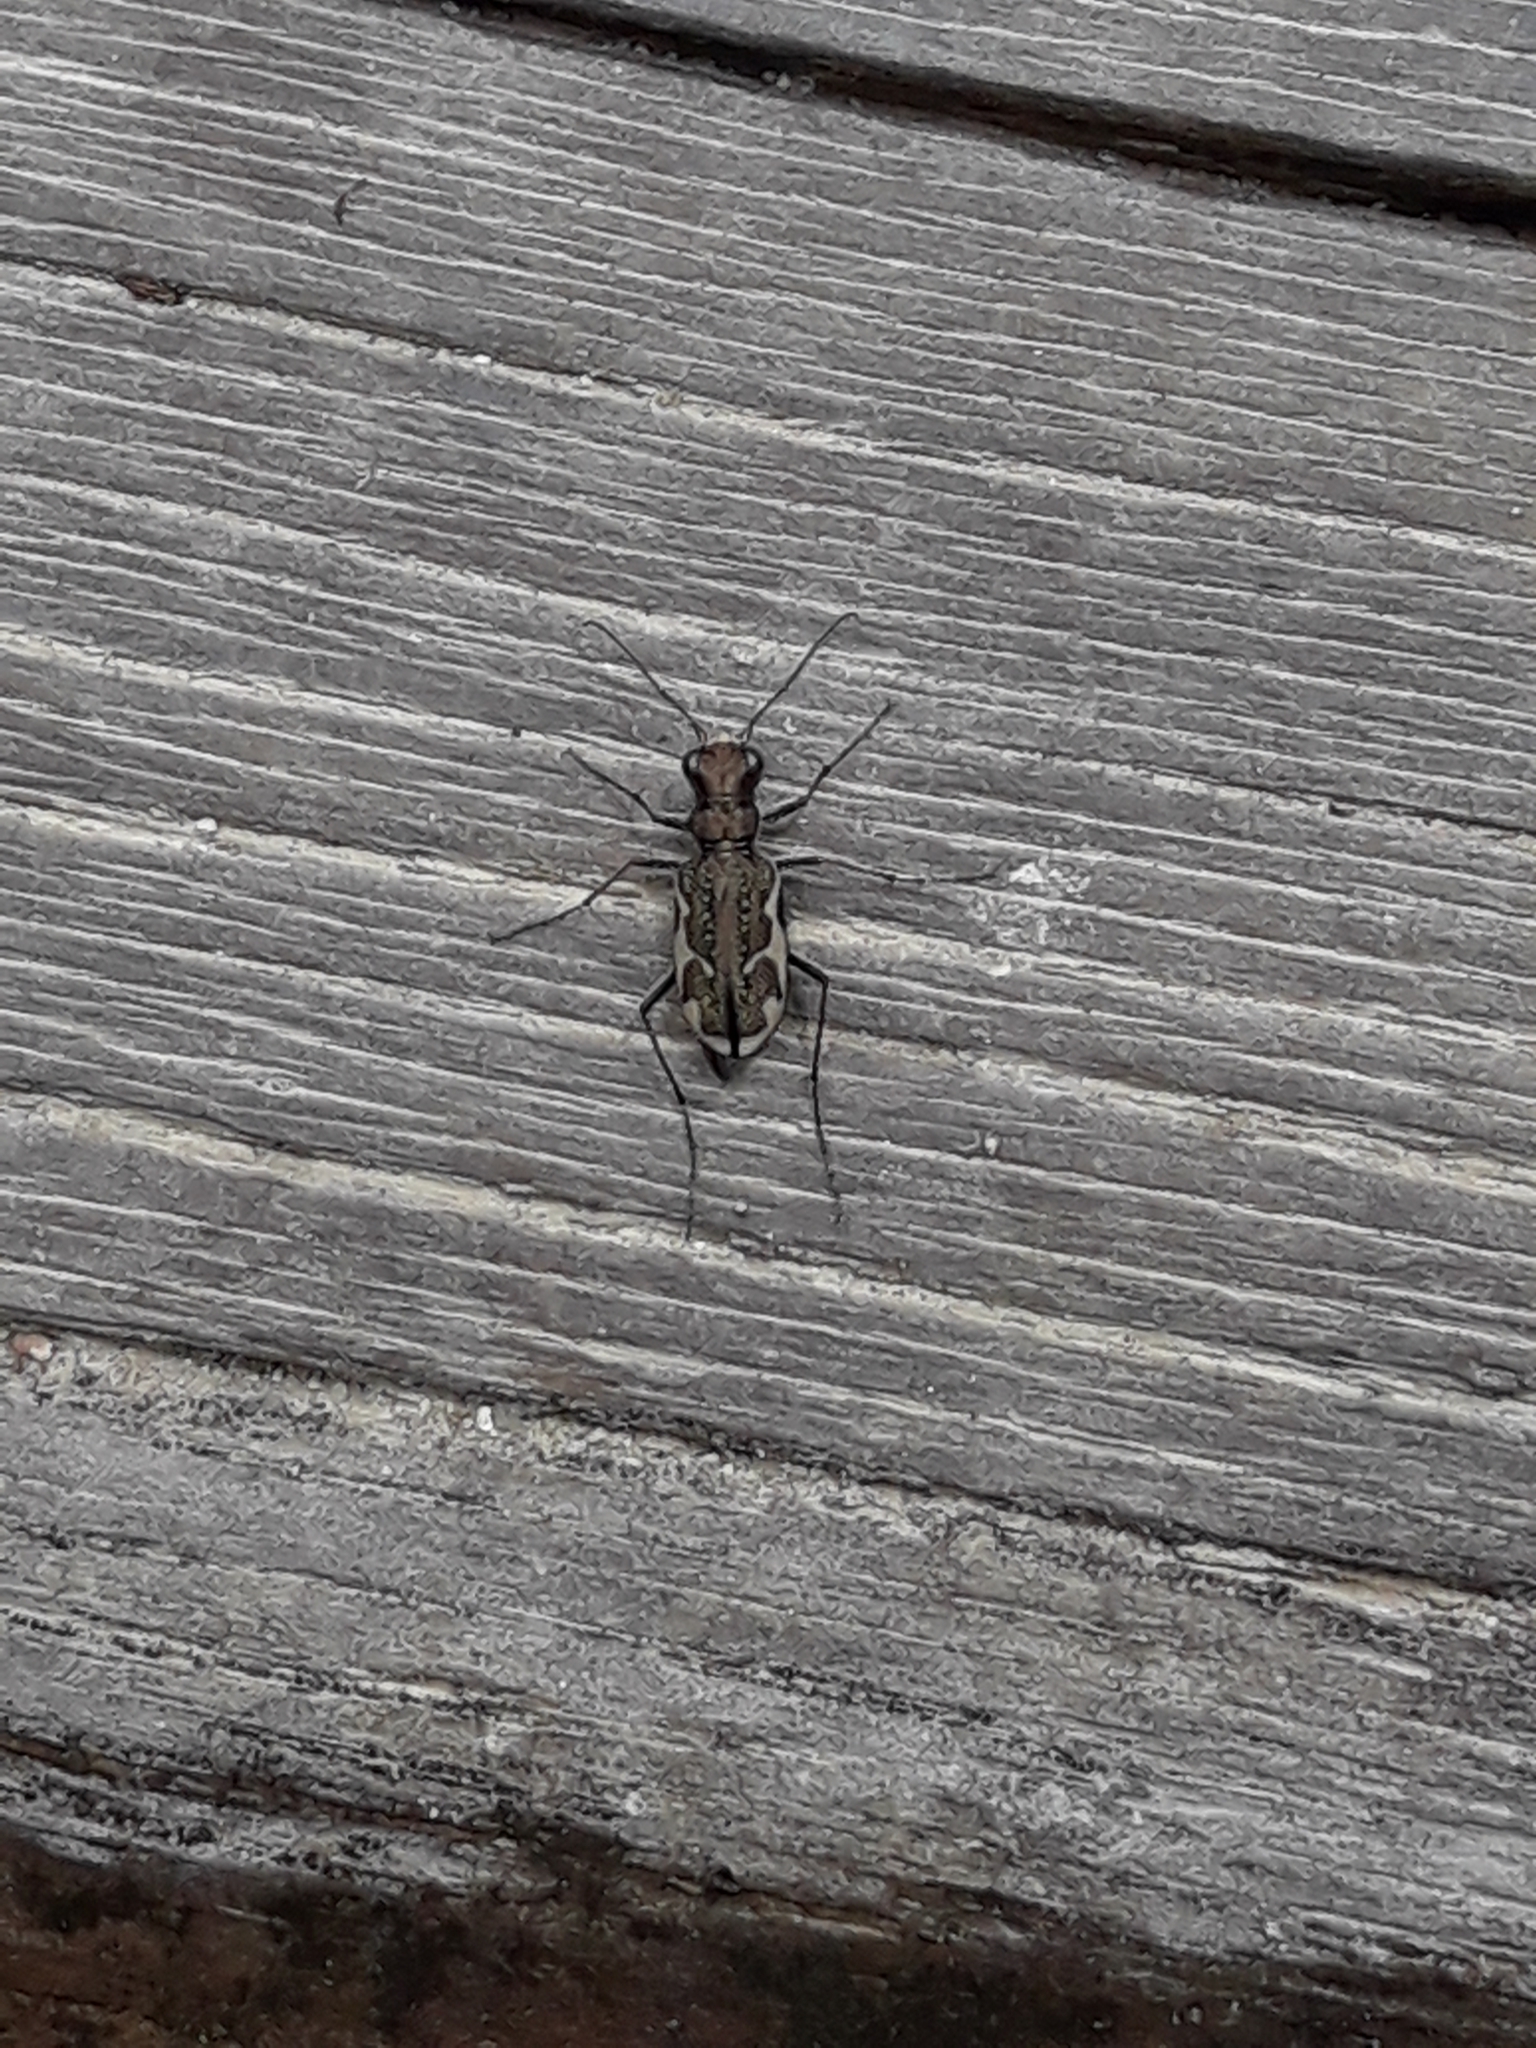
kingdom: Animalia
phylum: Arthropoda
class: Insecta
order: Coleoptera
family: Carabidae
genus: Neocicindela
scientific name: Neocicindela tuberculata
